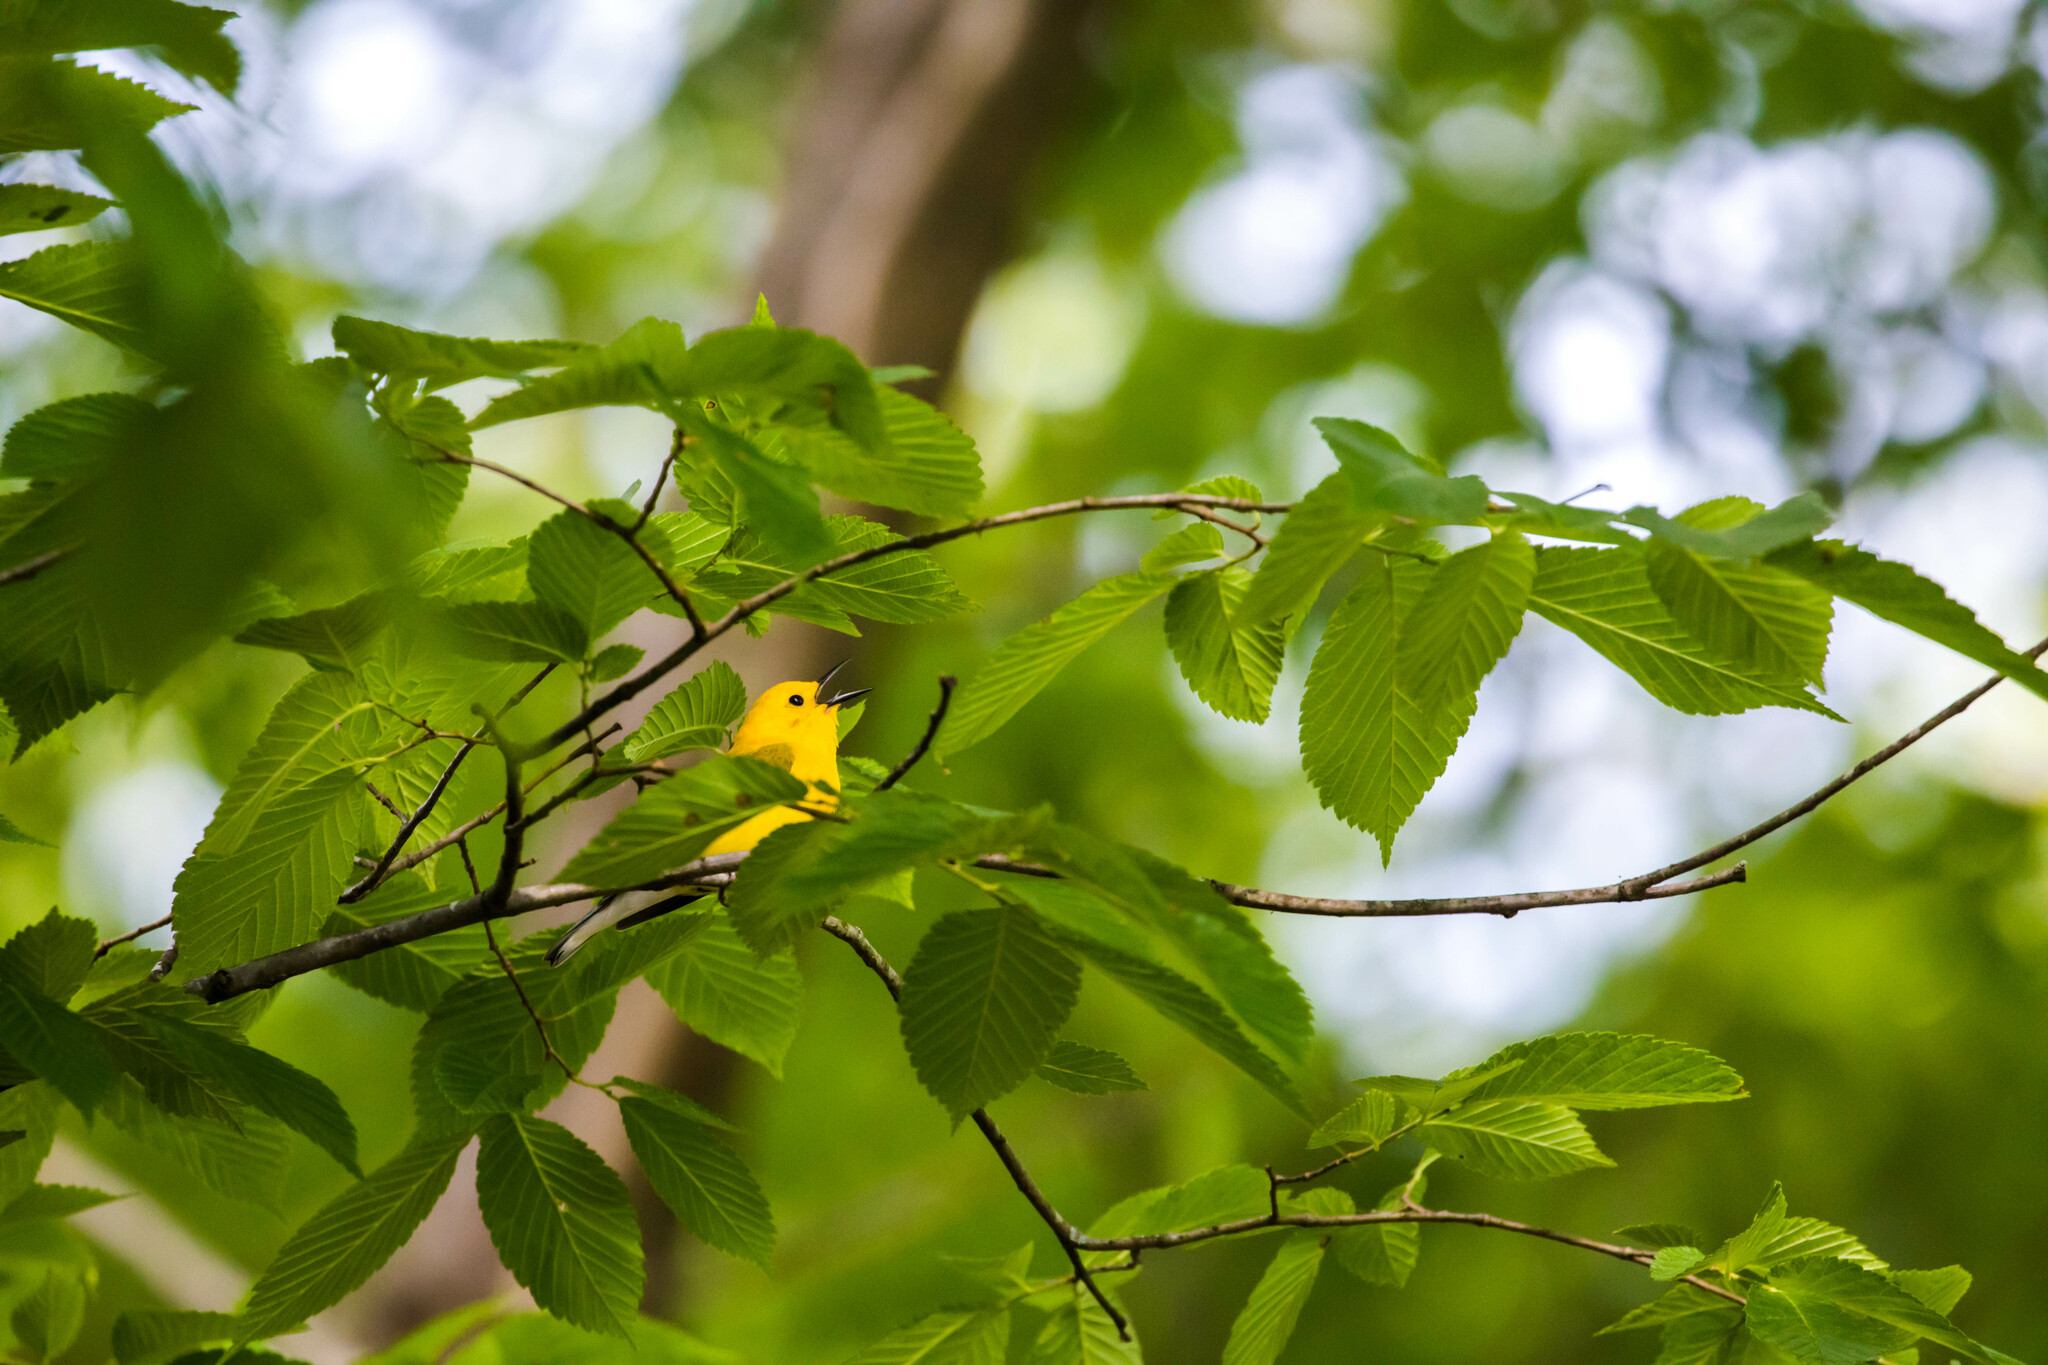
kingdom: Animalia
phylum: Chordata
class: Aves
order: Passeriformes
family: Parulidae
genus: Protonotaria
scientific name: Protonotaria citrea
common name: Prothonotary warbler
